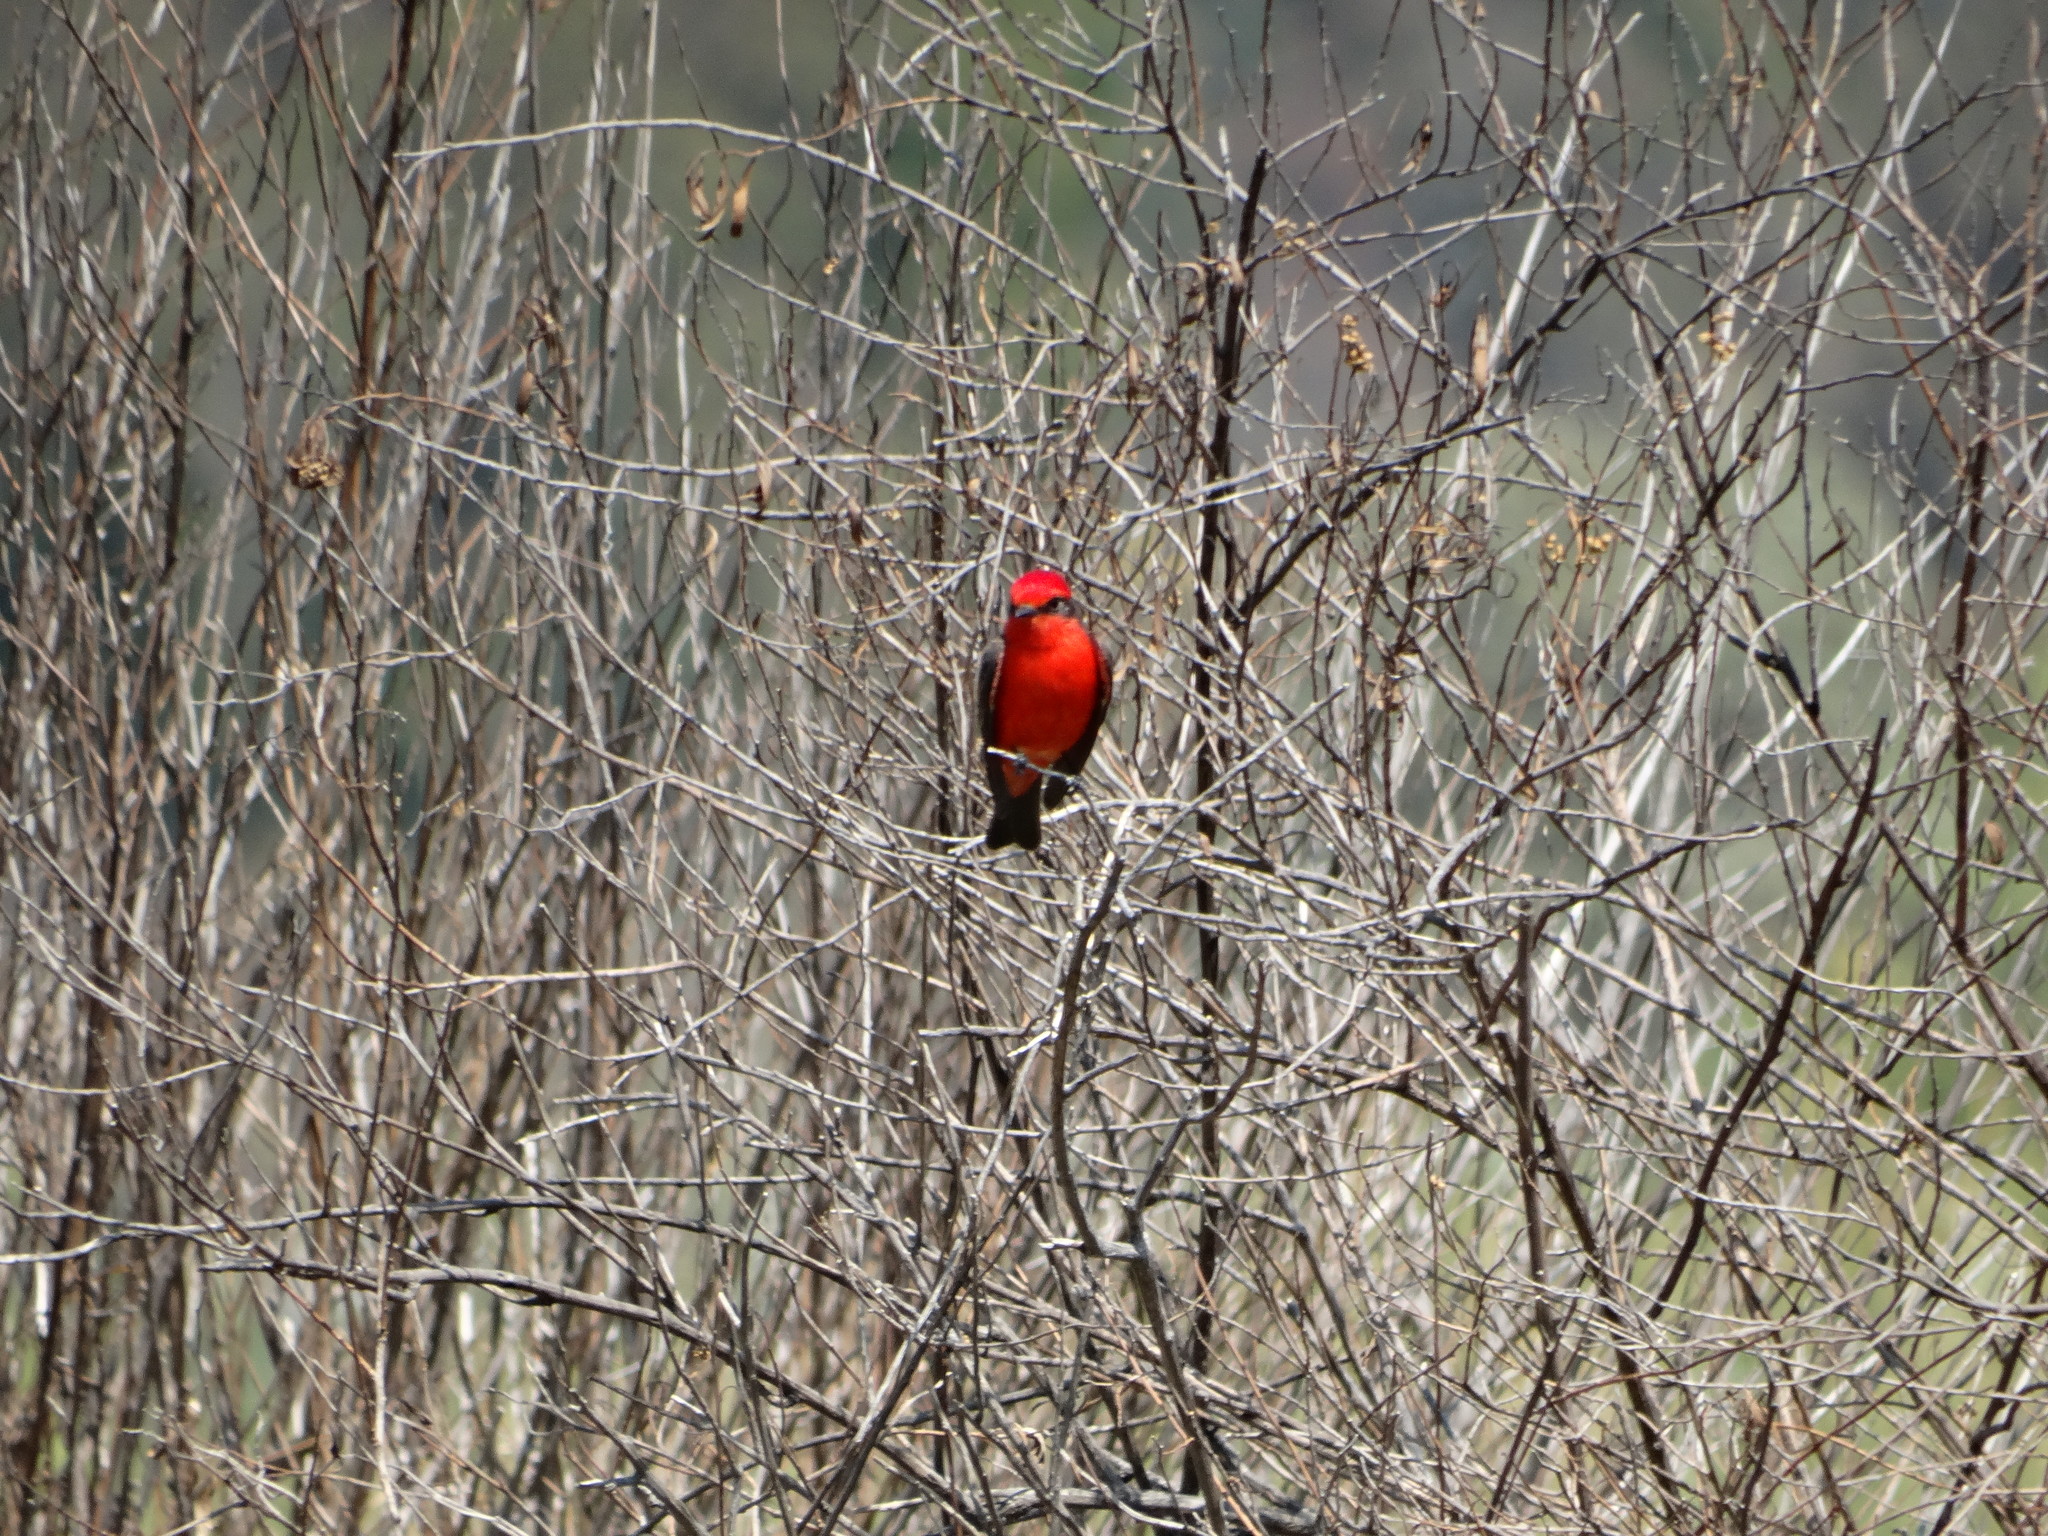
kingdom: Animalia
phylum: Chordata
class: Aves
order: Passeriformes
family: Tyrannidae
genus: Pyrocephalus
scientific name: Pyrocephalus rubinus
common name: Vermilion flycatcher
